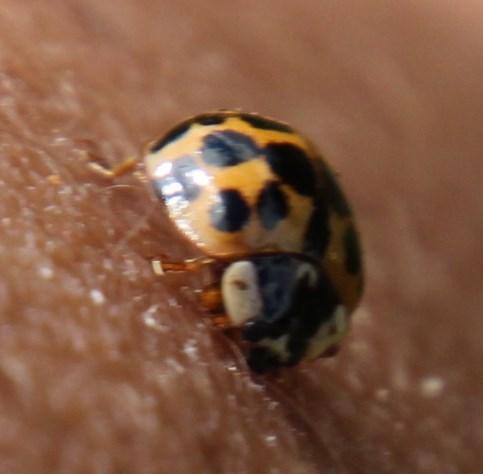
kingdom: Animalia
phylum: Arthropoda
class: Insecta
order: Coleoptera
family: Coccinellidae
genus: Harmonia
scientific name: Harmonia axyridis
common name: Harlequin ladybird
